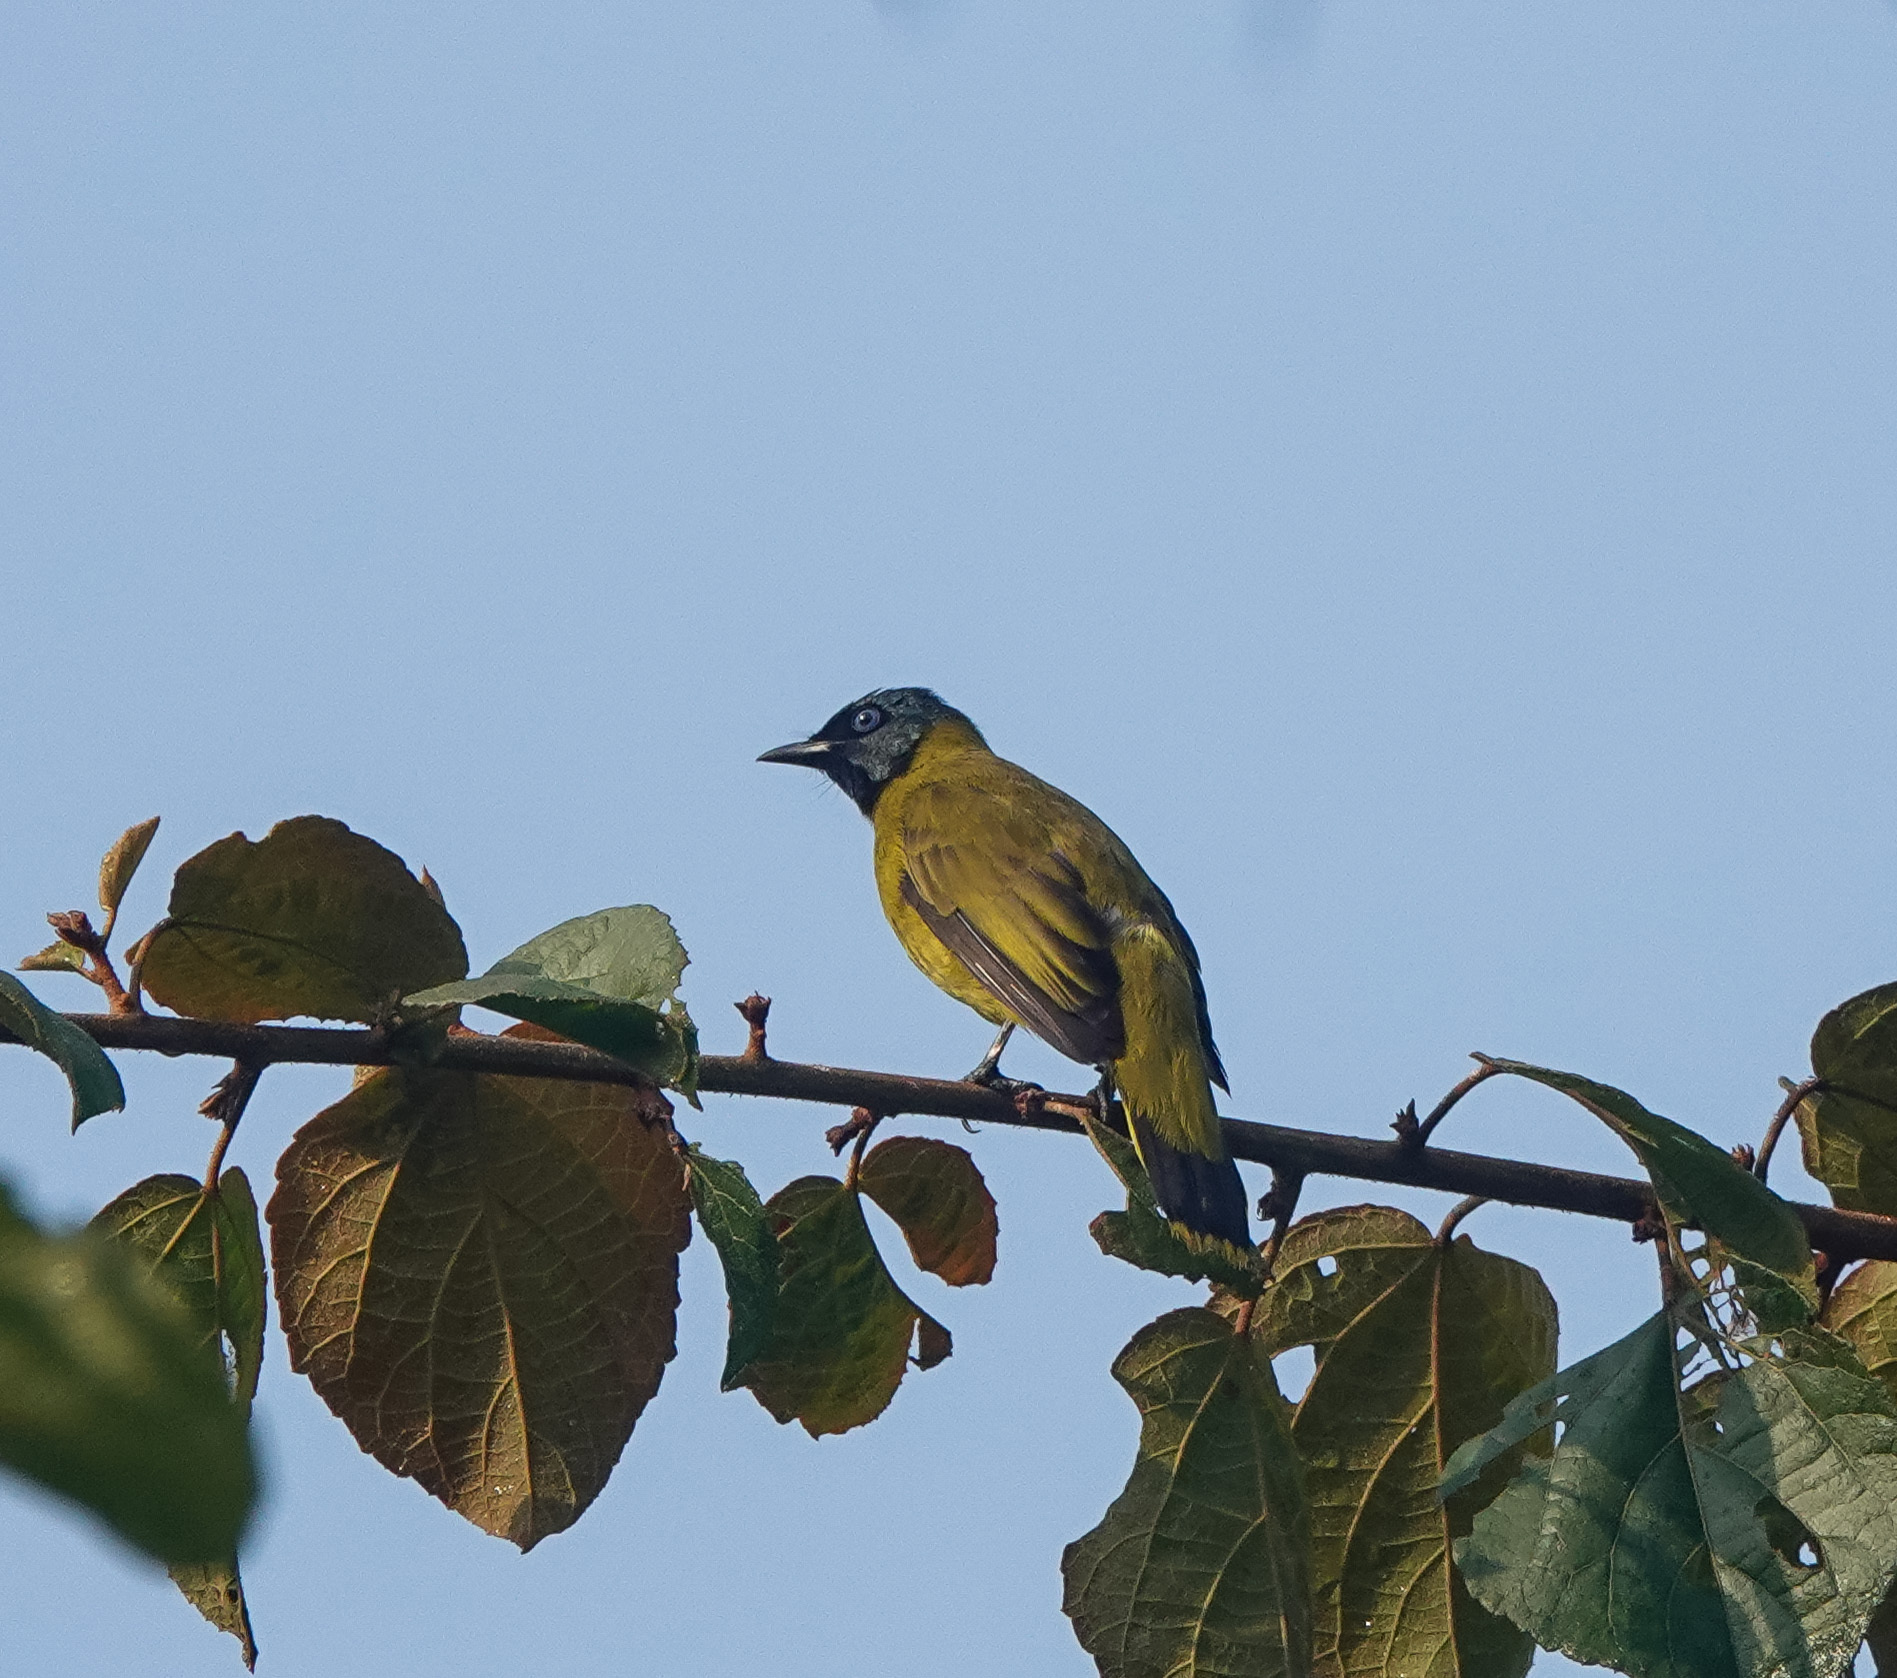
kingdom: Animalia
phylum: Chordata
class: Aves
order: Passeriformes
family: Pycnonotidae
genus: Microtarsus
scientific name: Microtarsus
